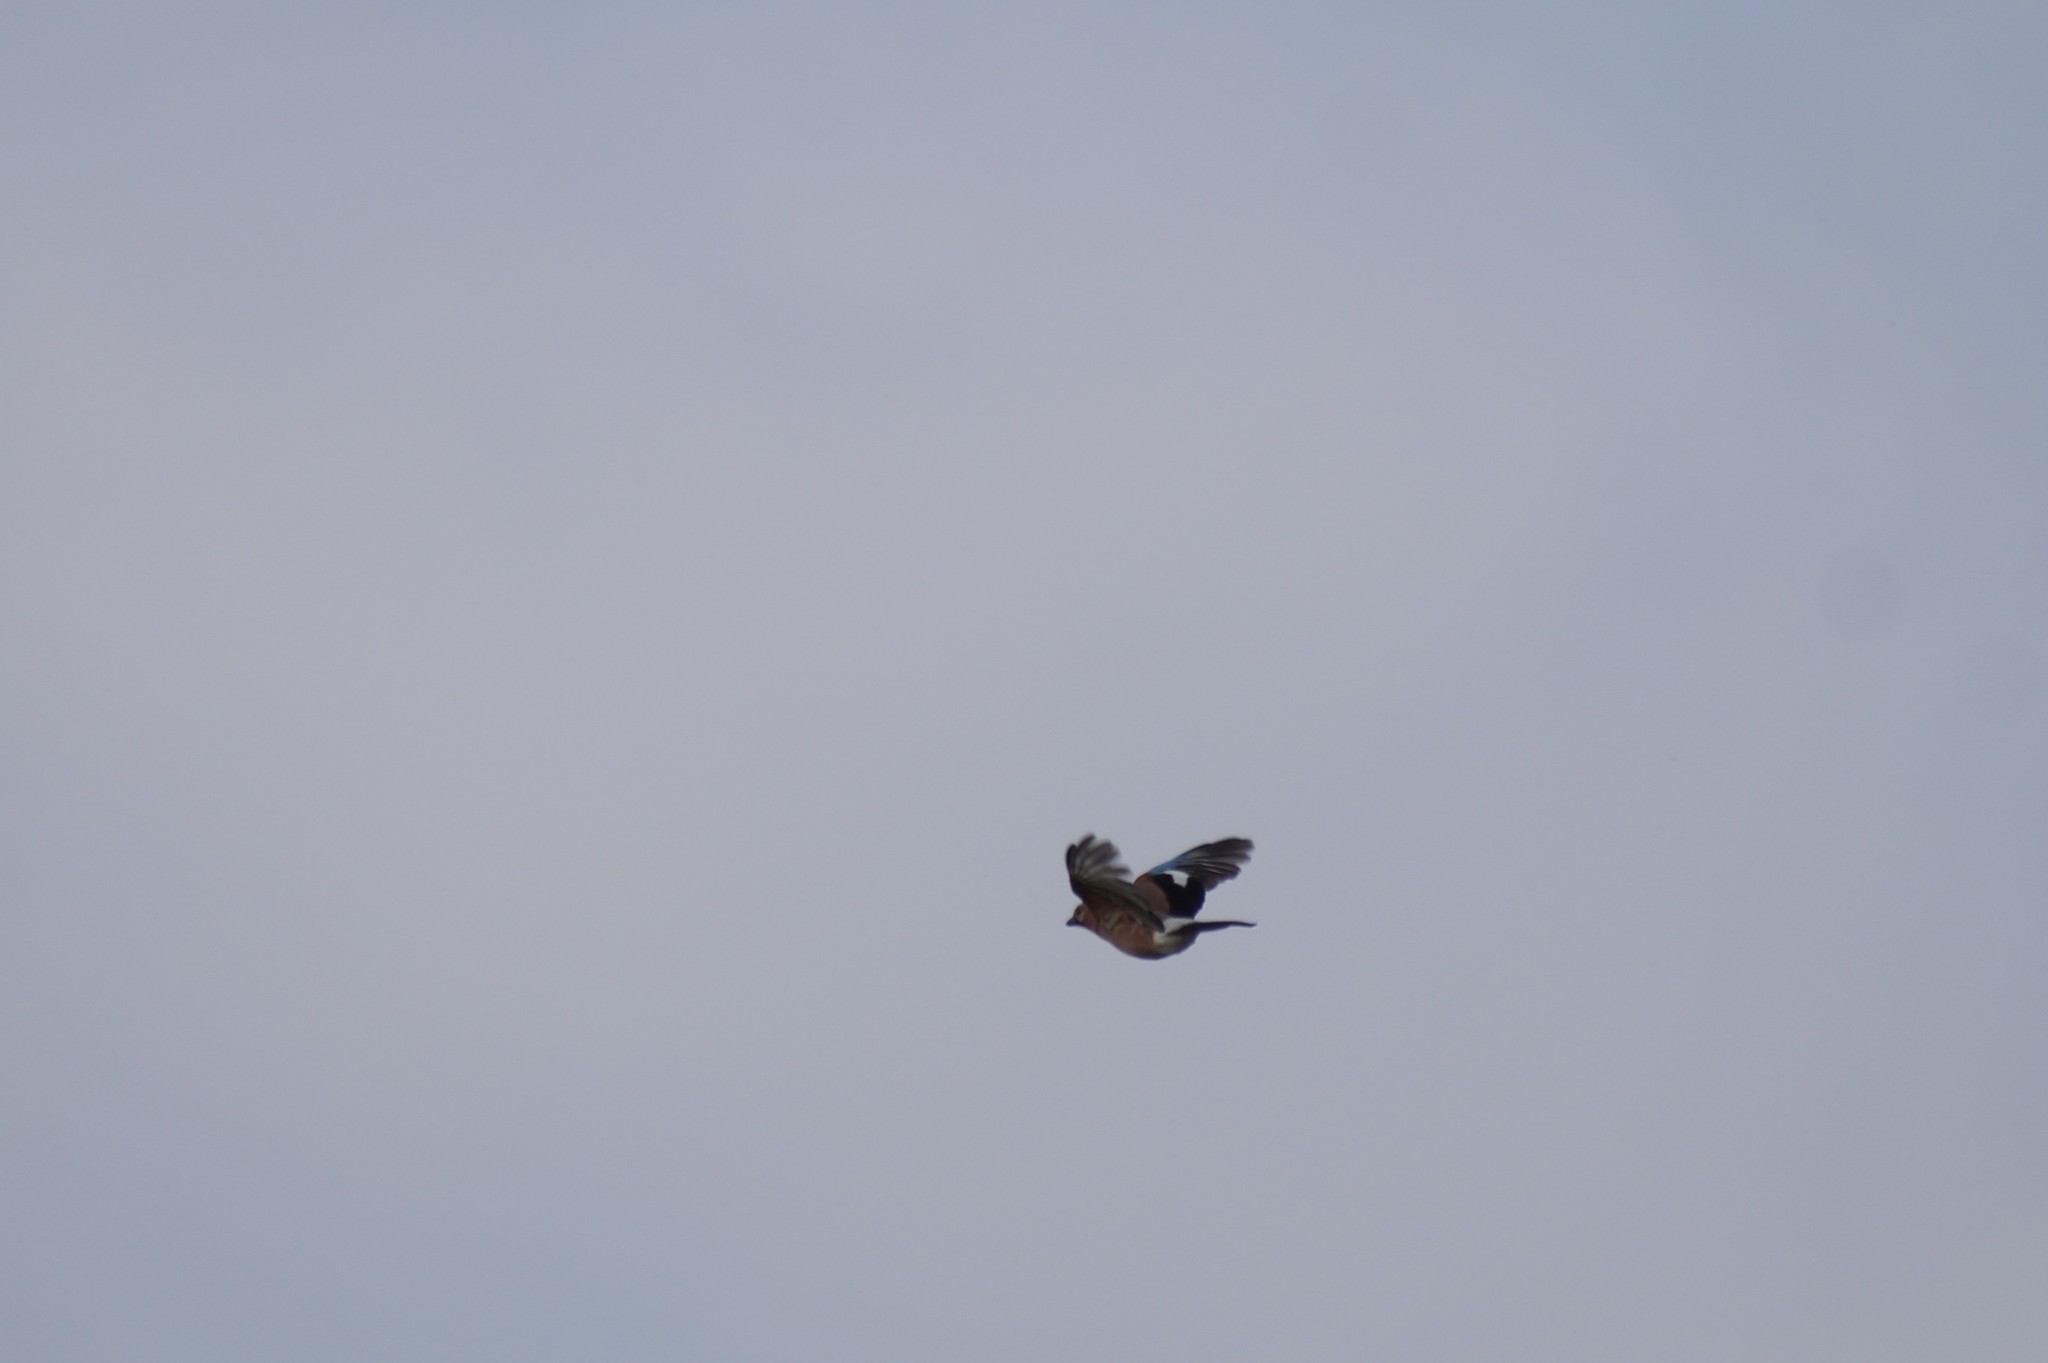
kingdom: Animalia
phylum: Chordata
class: Aves
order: Passeriformes
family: Corvidae
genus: Garrulus
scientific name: Garrulus glandarius
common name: Eurasian jay
